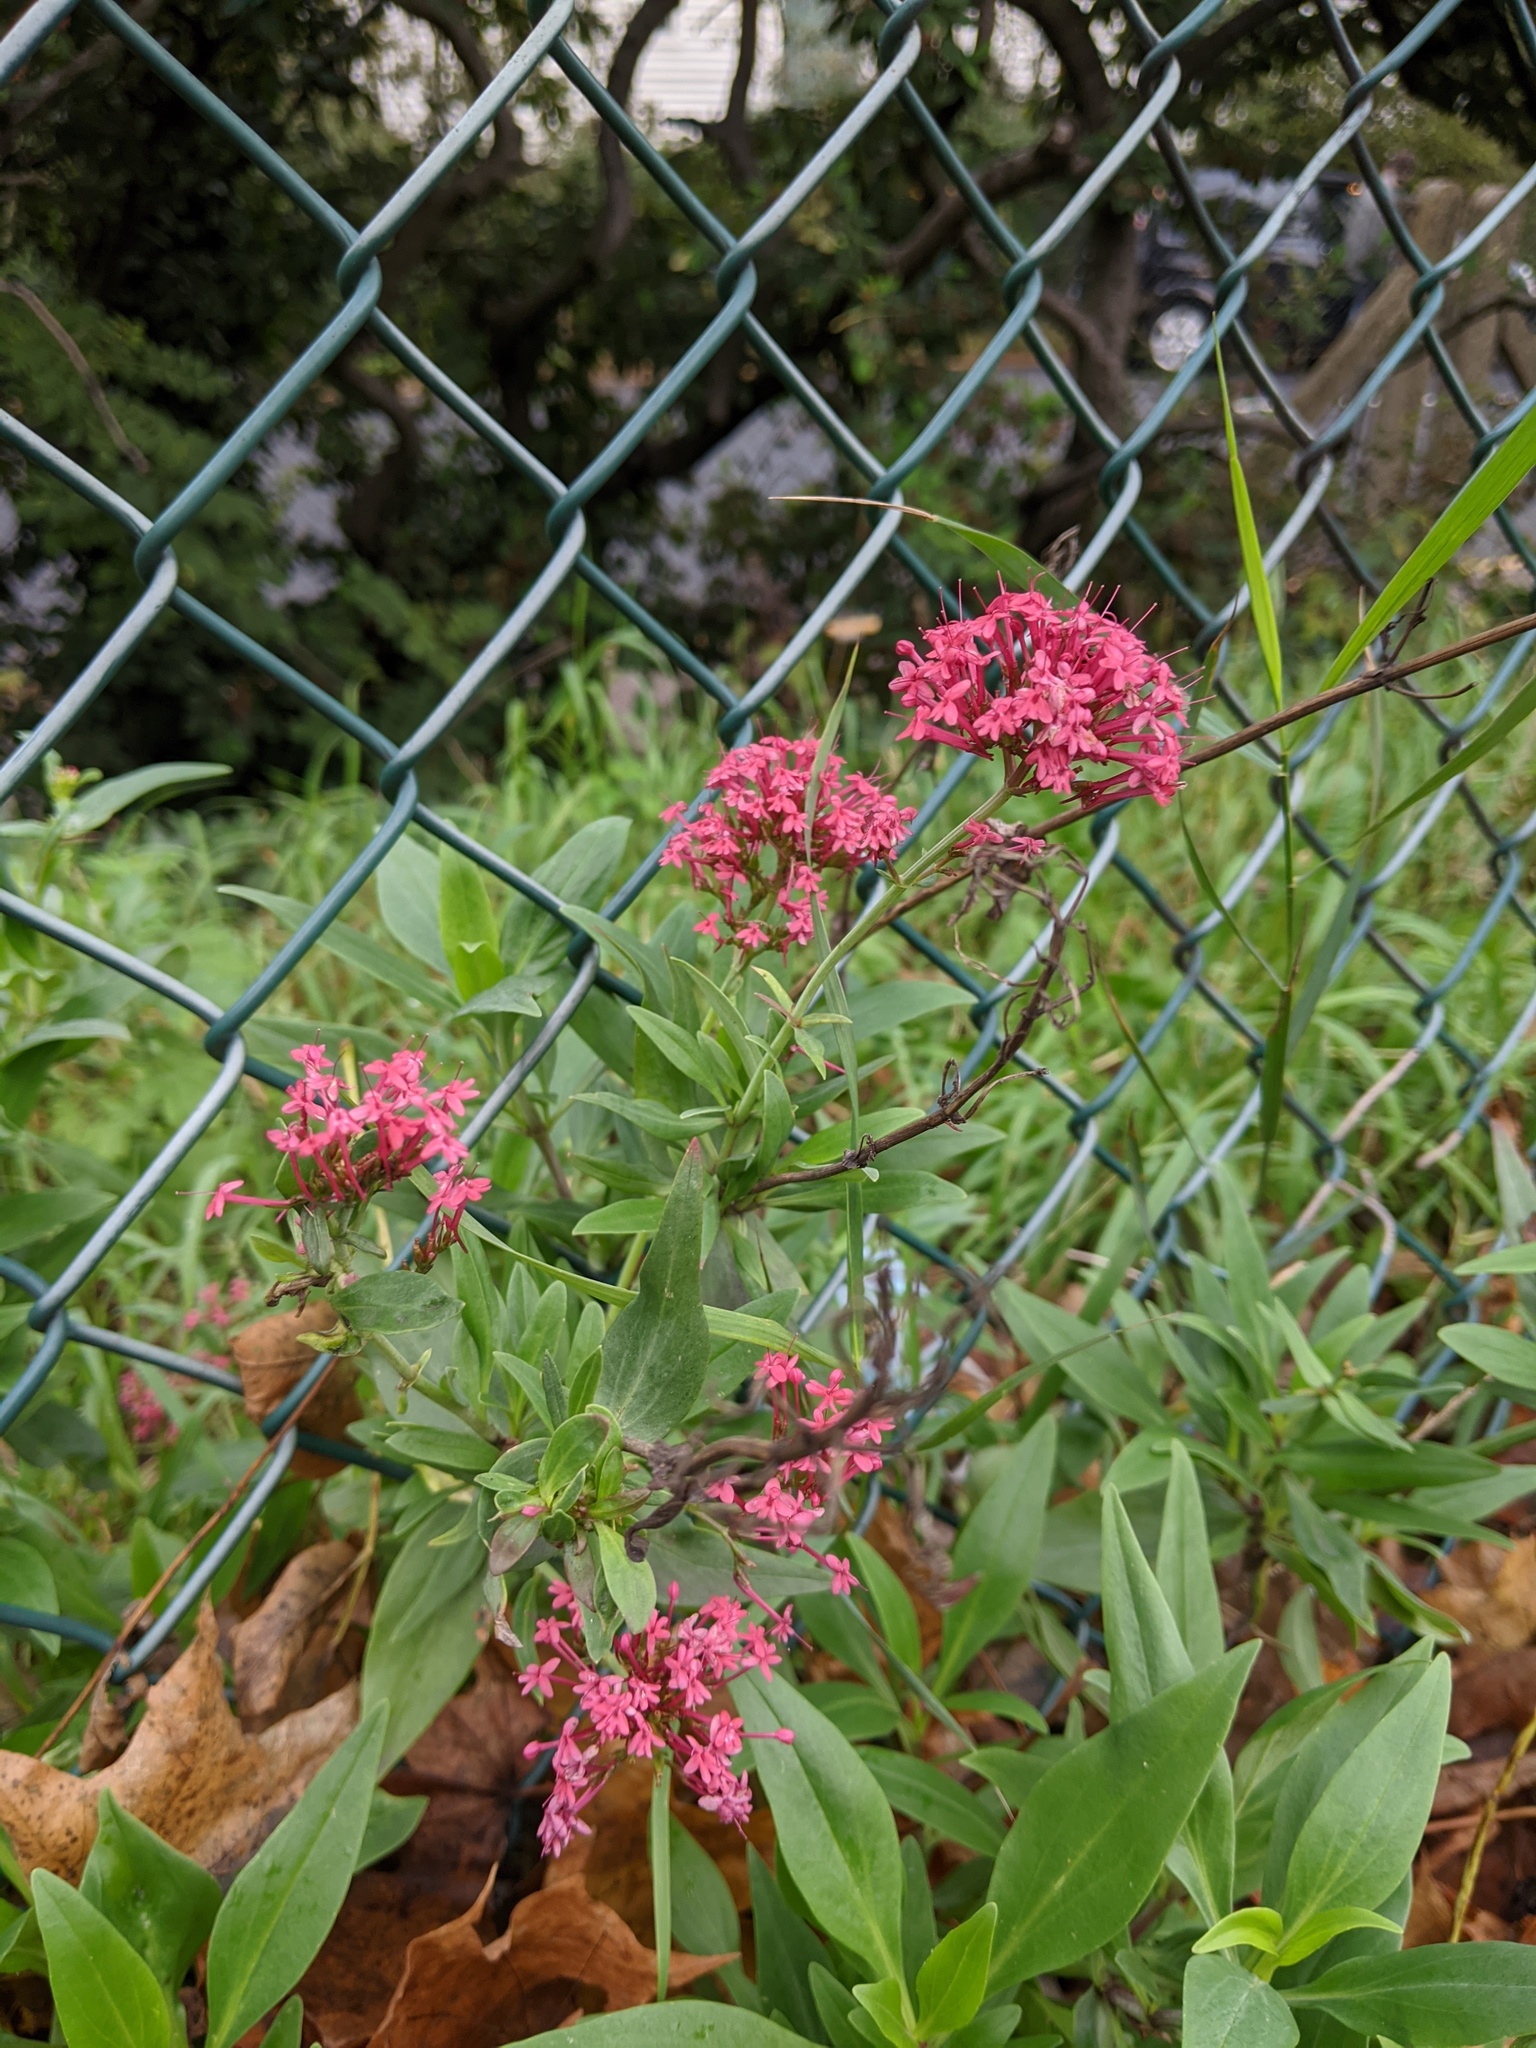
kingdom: Plantae
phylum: Tracheophyta
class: Magnoliopsida
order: Dipsacales
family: Caprifoliaceae
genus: Centranthus
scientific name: Centranthus ruber
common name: Red valerian
